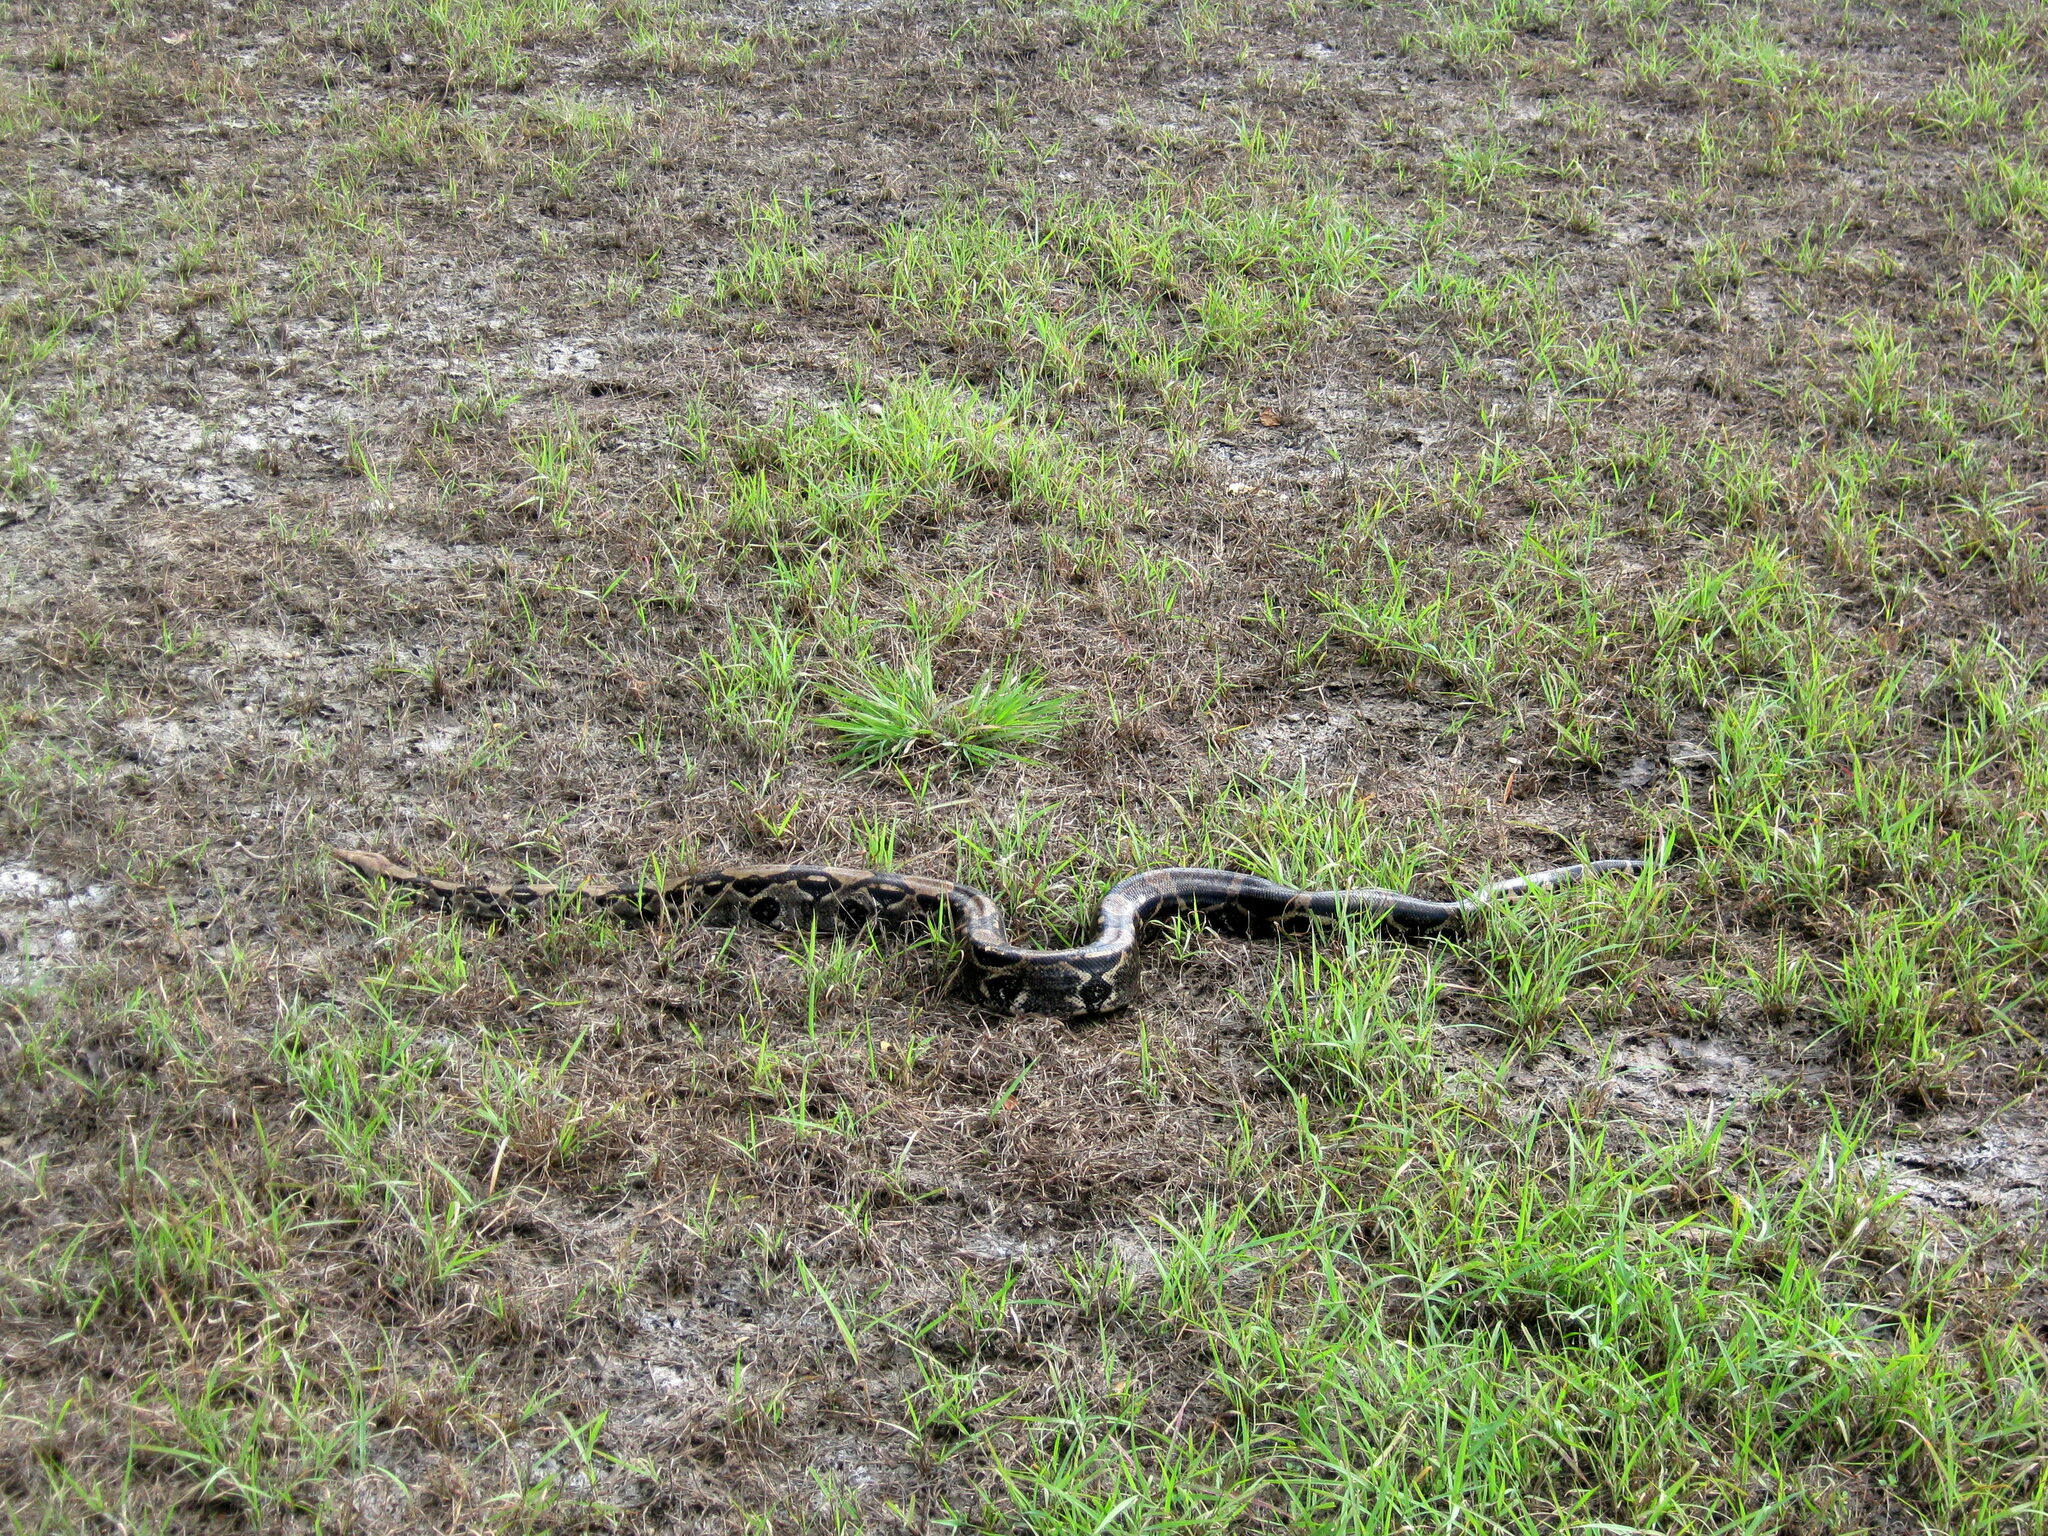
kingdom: Animalia
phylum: Chordata
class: Squamata
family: Boidae
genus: Boa
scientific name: Boa imperator
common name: Central american boa
